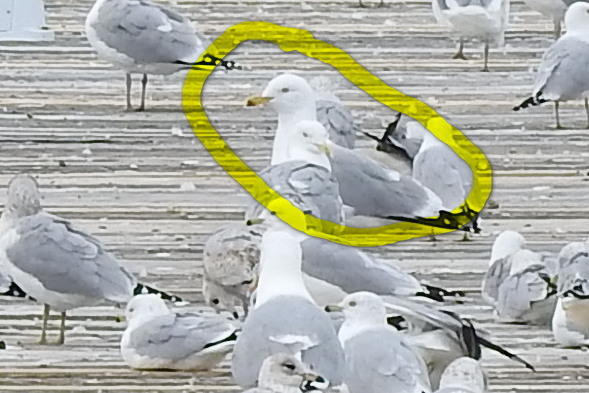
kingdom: Animalia
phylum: Chordata
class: Aves
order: Charadriiformes
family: Laridae
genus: Larus
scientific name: Larus smithsonianus
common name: American herring gull
